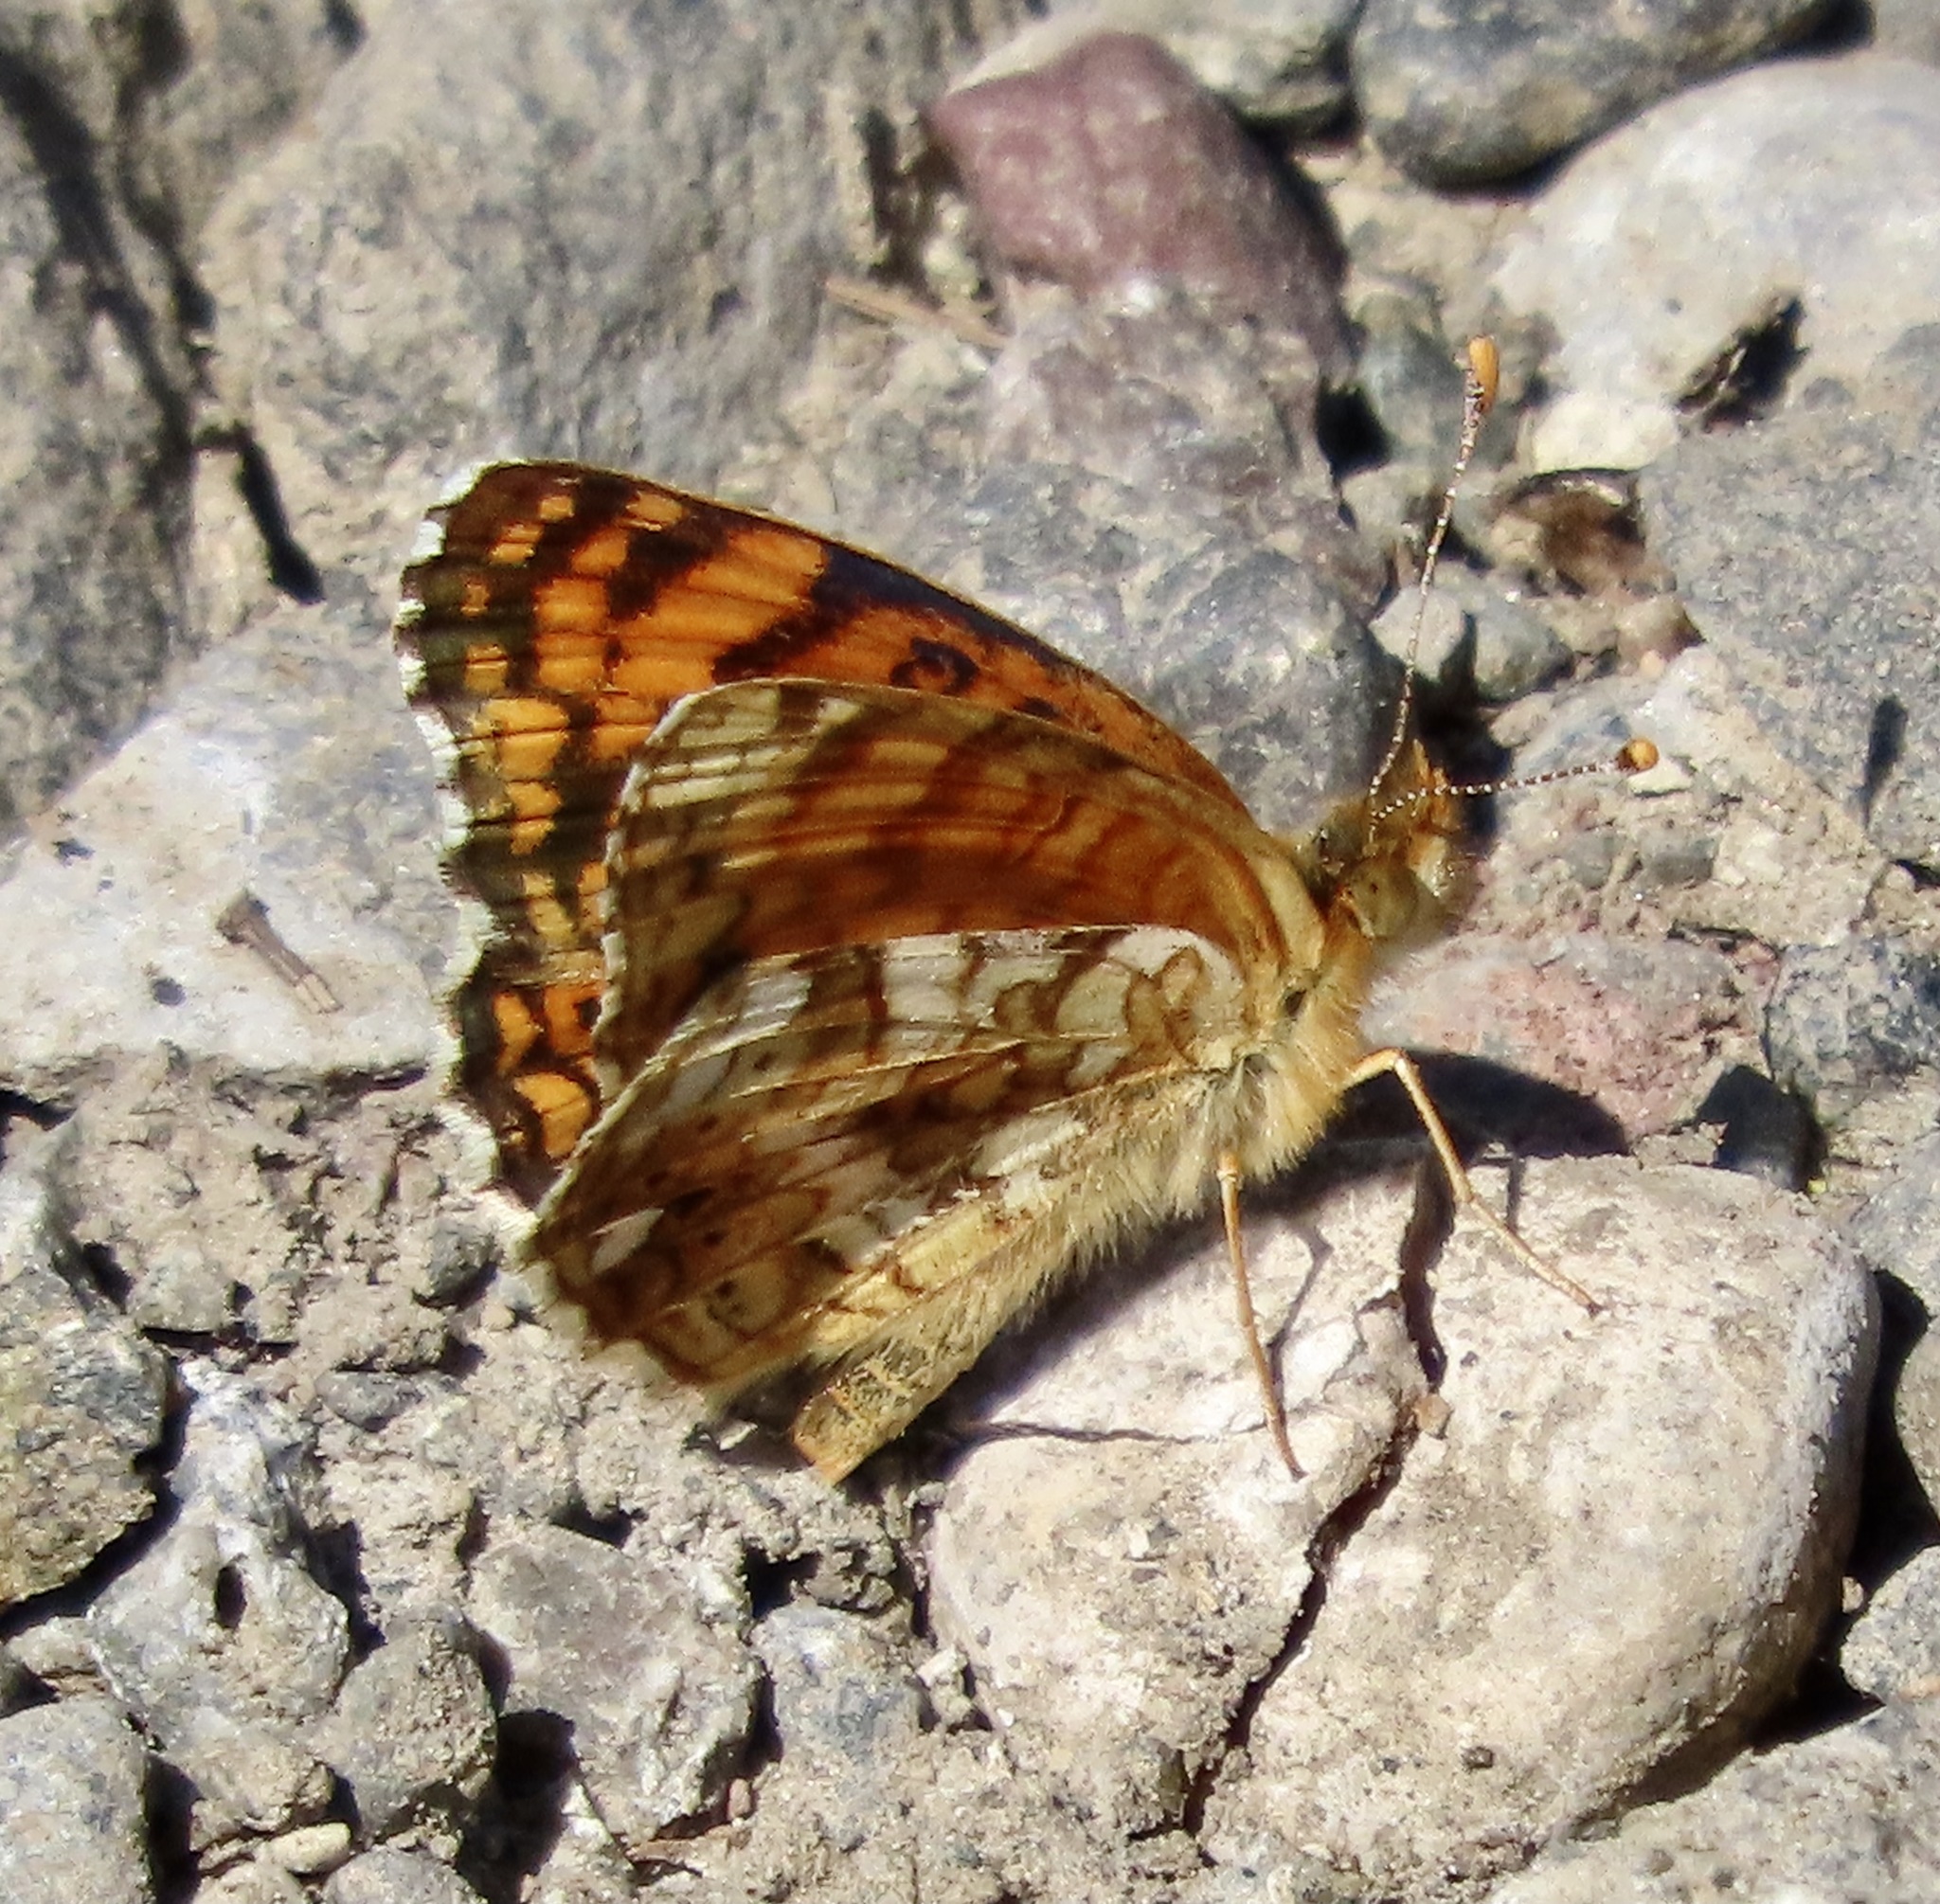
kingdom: Animalia
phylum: Arthropoda
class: Insecta
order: Lepidoptera
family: Nymphalidae
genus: Eresia
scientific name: Eresia aveyrona
